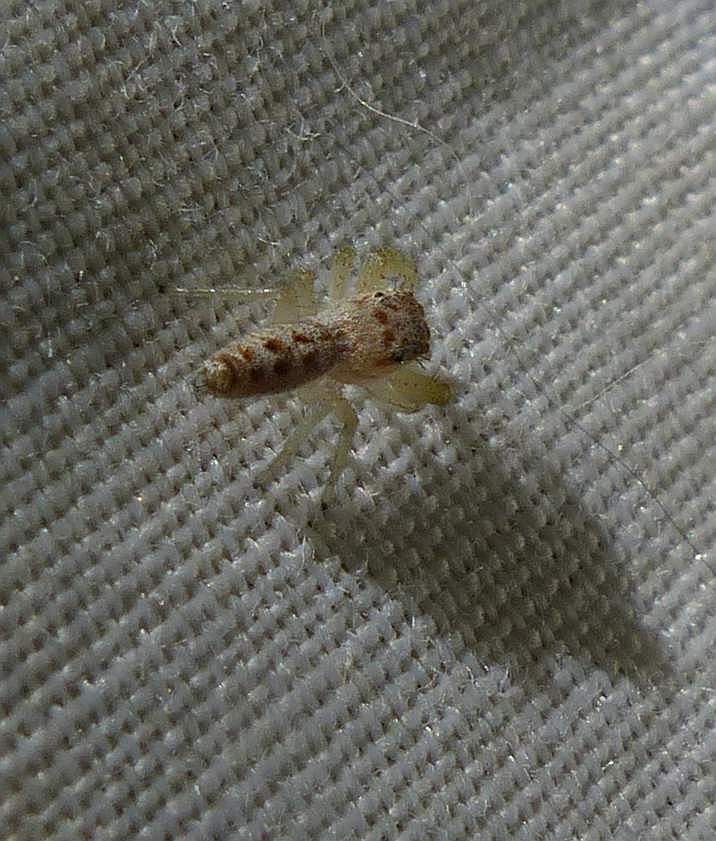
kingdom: Animalia
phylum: Arthropoda
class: Arachnida
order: Araneae
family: Salticidae
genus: Hentzia
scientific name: Hentzia mitrata
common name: White-jawed jumping spider
